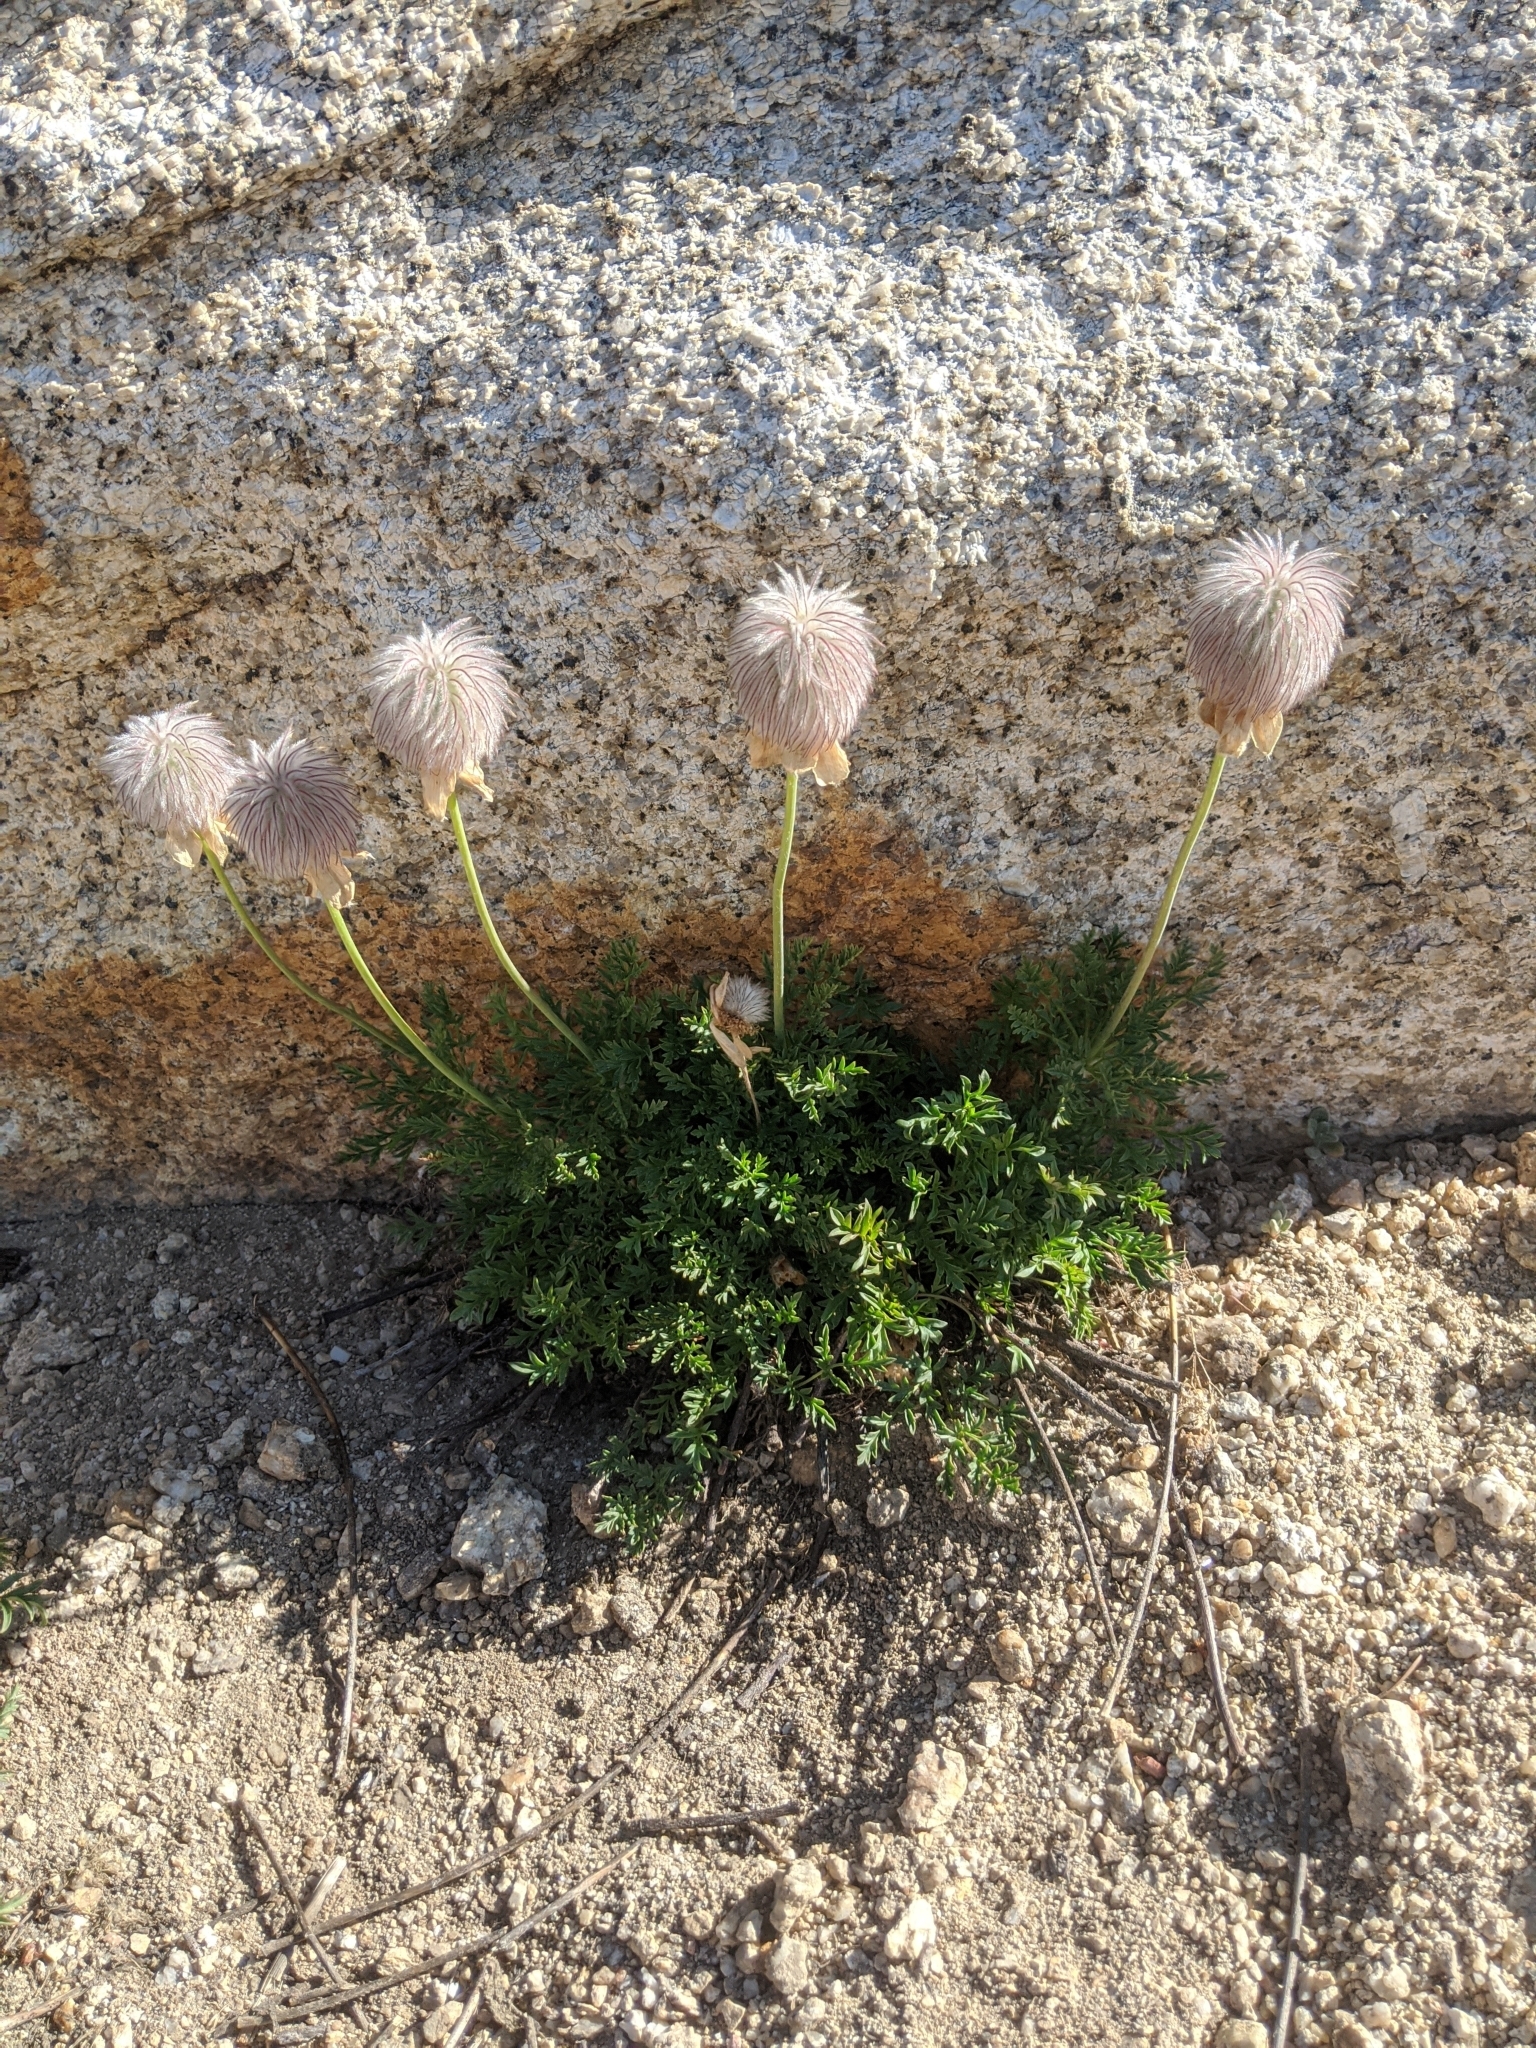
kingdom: Plantae
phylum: Tracheophyta
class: Magnoliopsida
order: Ranunculales
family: Ranunculaceae
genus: Pulsatilla
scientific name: Pulsatilla occidentalis
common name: Mountain pasqueflower
